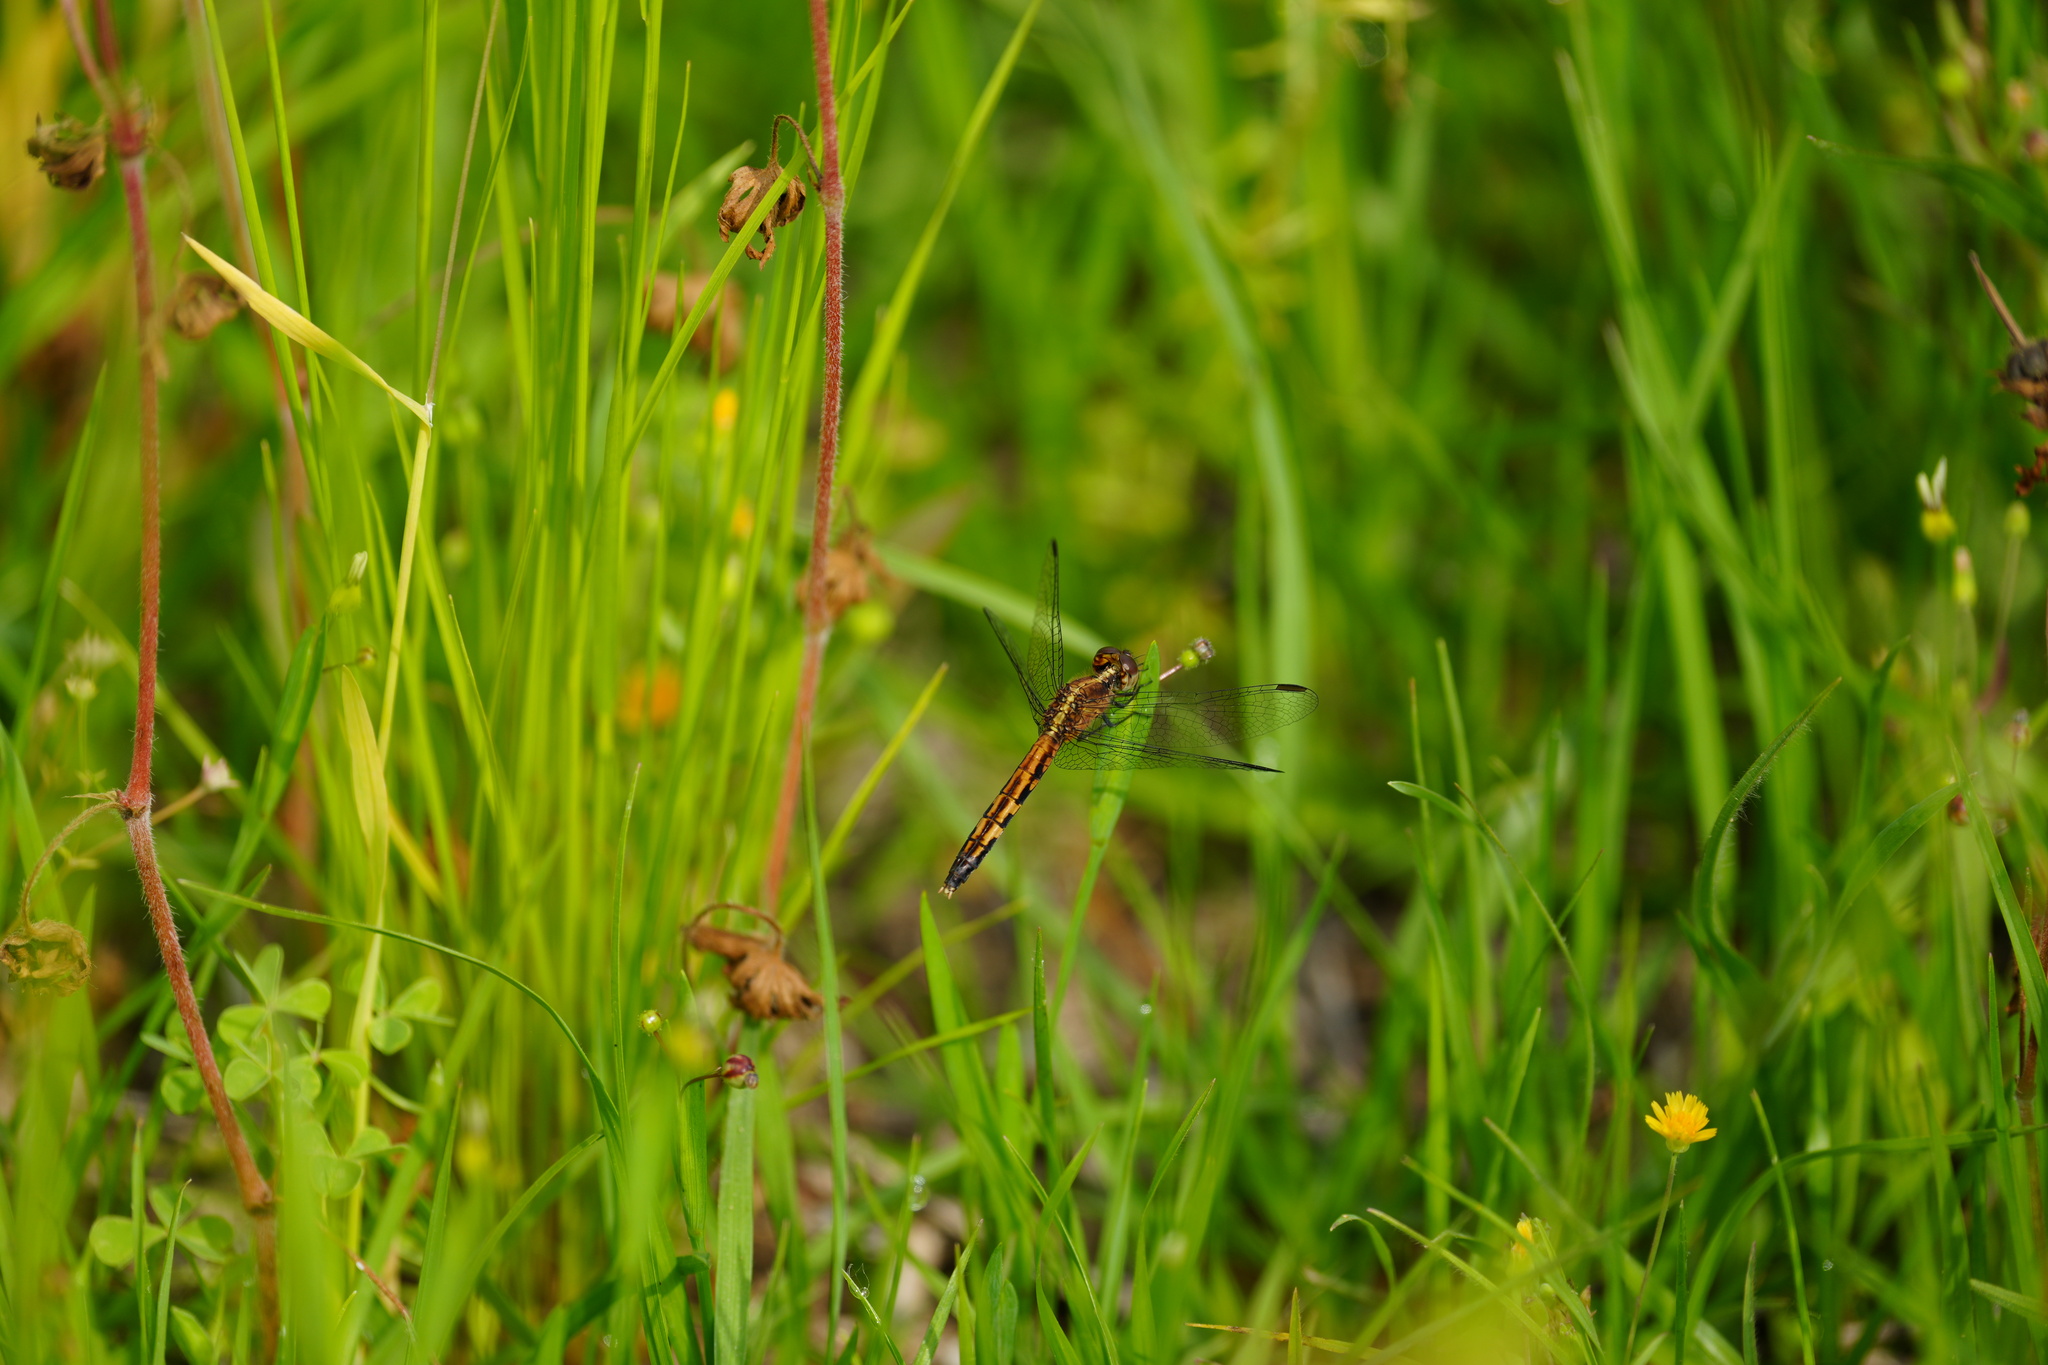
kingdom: Animalia
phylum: Arthropoda
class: Insecta
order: Odonata
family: Libellulidae
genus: Erythrodiplax
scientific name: Erythrodiplax minuscula
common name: Little blue dragonlet
